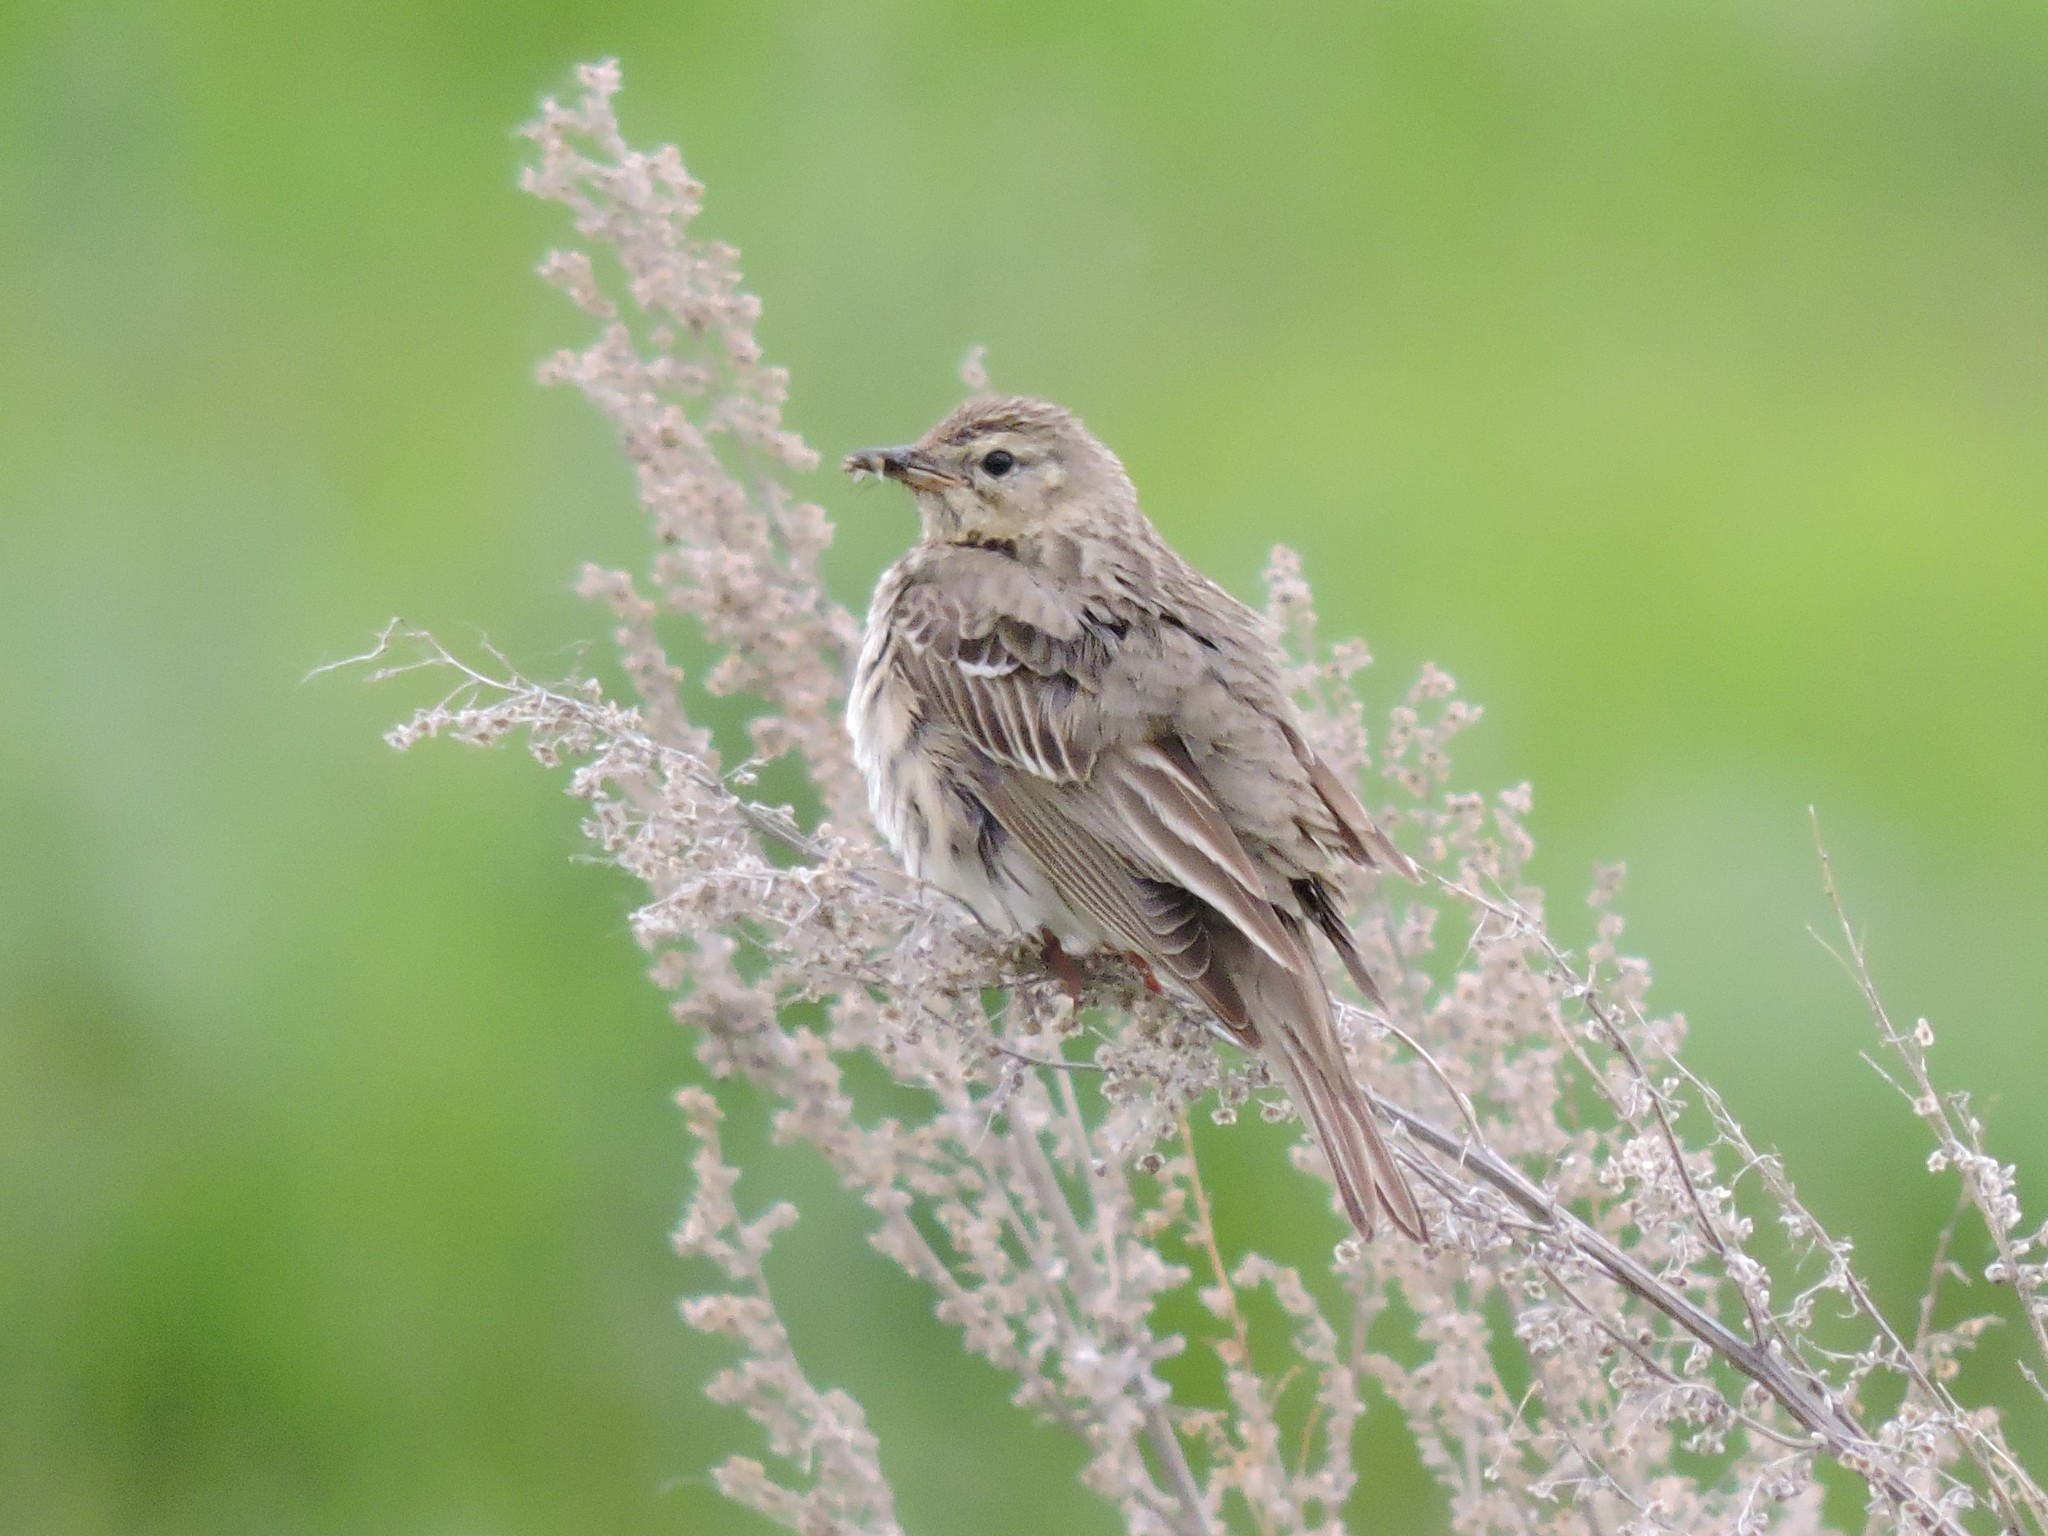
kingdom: Animalia
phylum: Chordata
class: Aves
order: Passeriformes
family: Motacillidae
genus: Anthus
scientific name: Anthus trivialis
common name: Tree pipit
